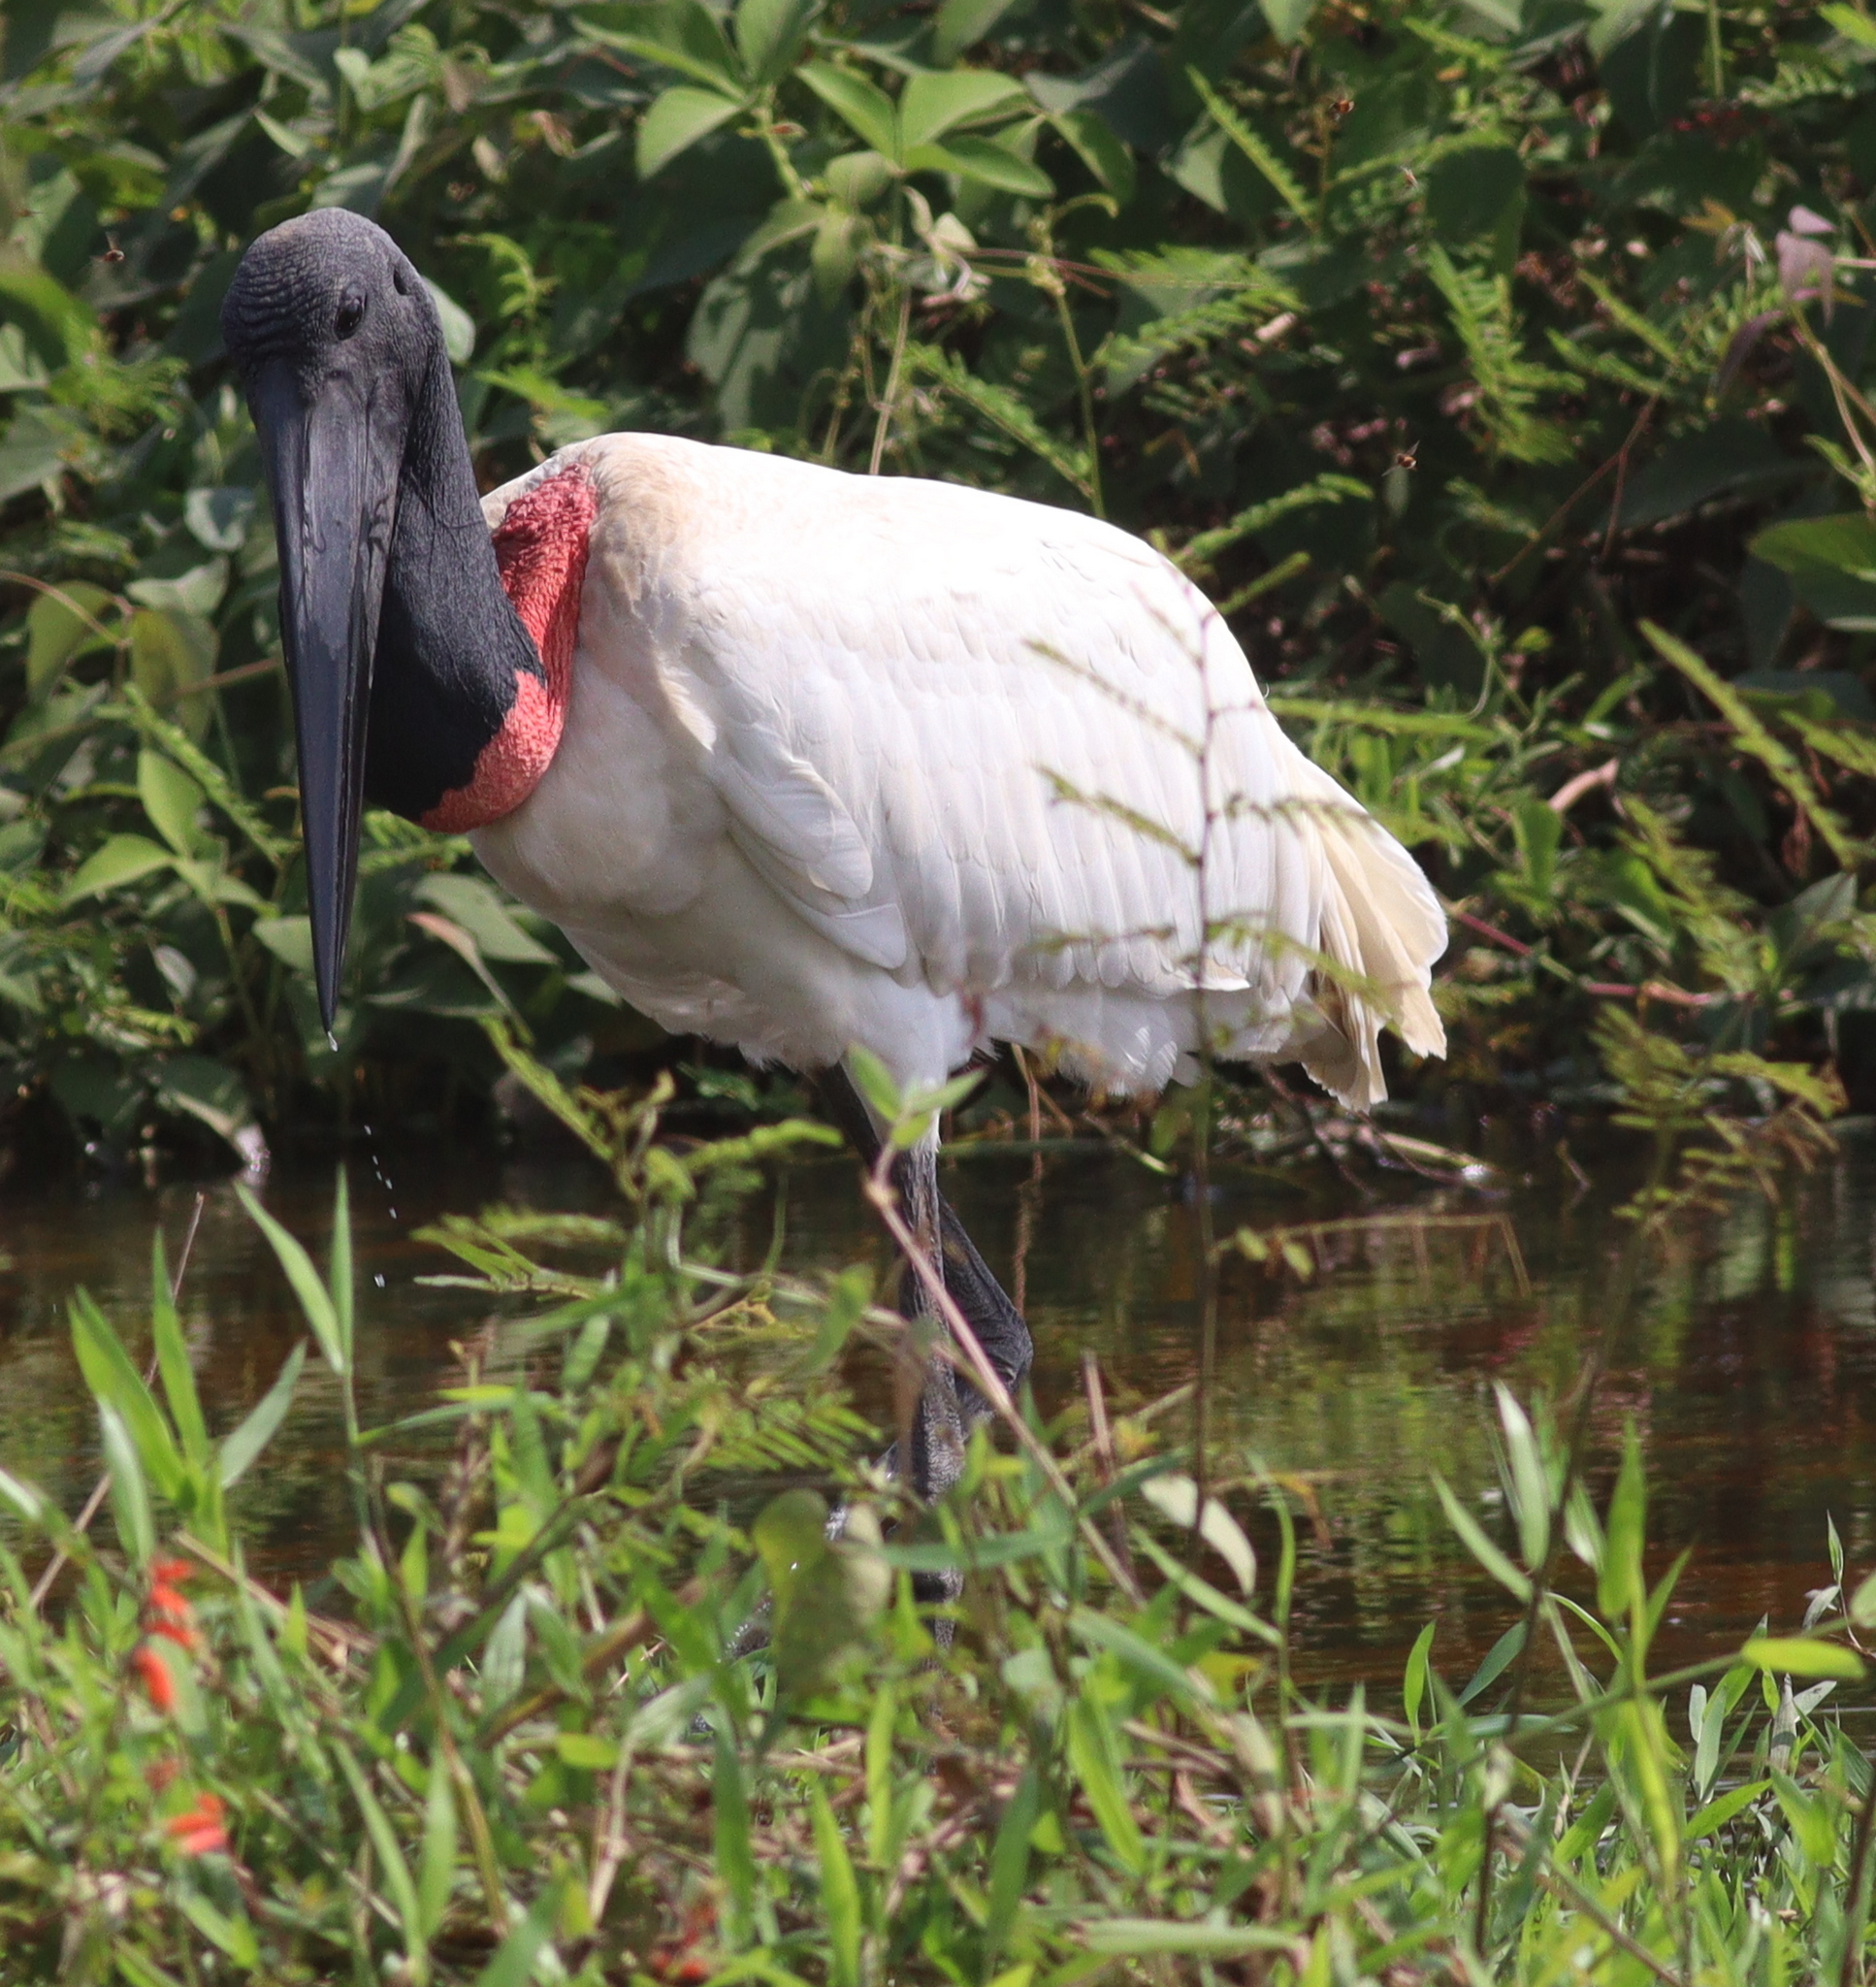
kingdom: Animalia
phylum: Chordata
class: Aves
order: Ciconiiformes
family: Ciconiidae
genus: Jabiru
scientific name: Jabiru mycteria
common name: Jabiru
